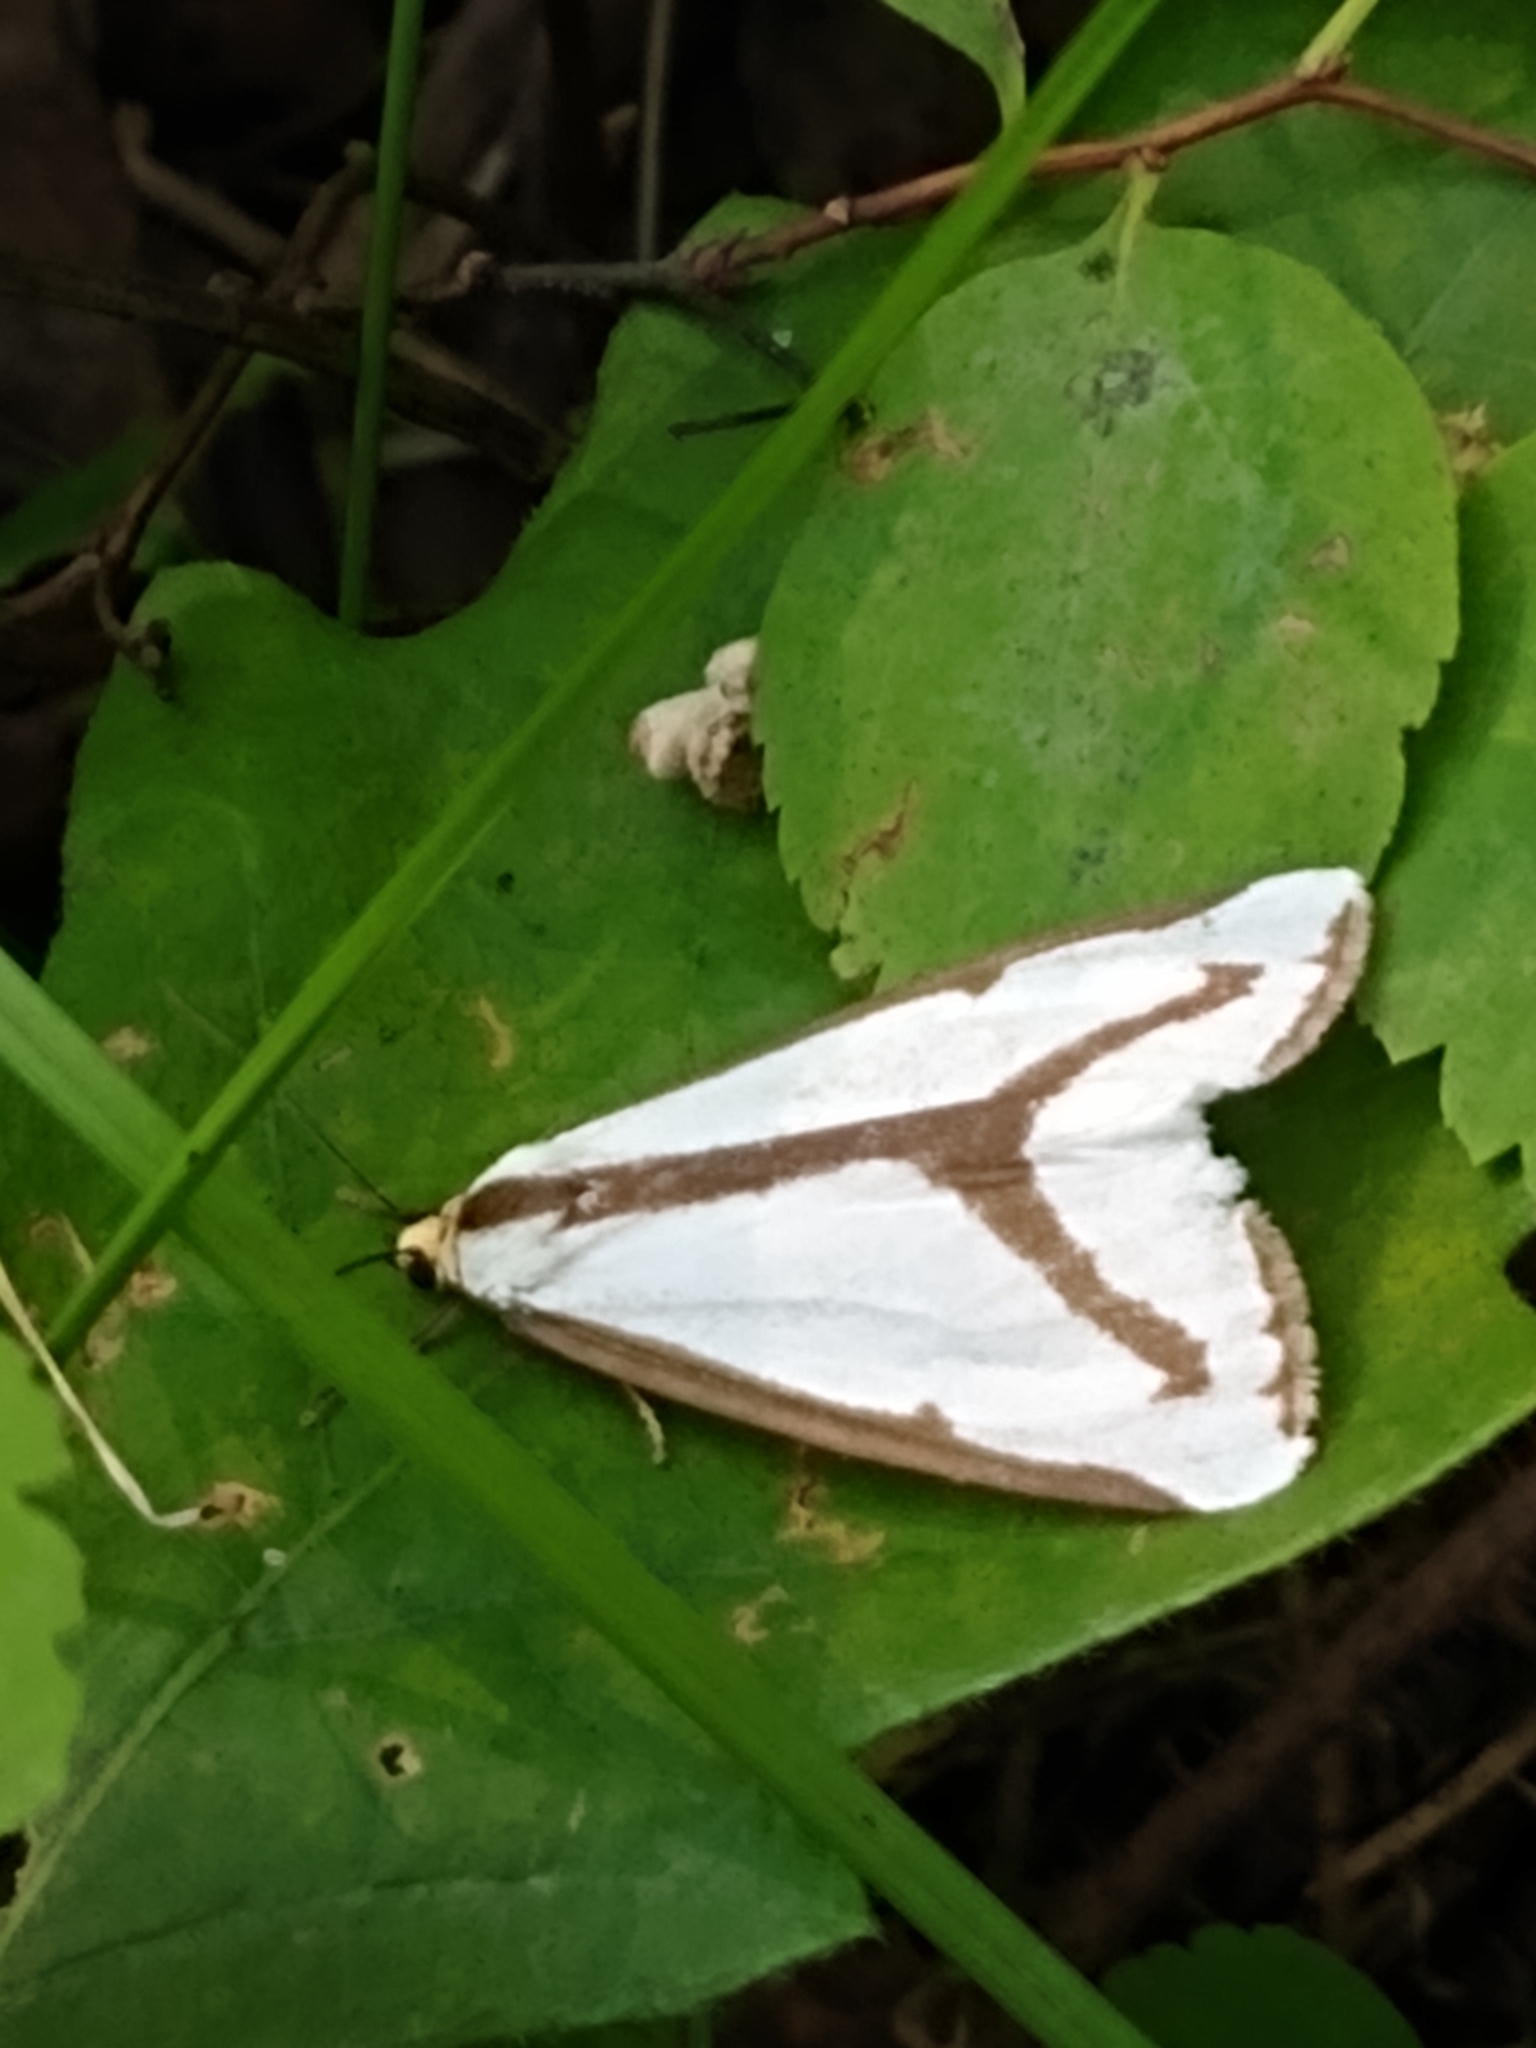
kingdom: Animalia
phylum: Arthropoda
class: Insecta
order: Lepidoptera
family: Erebidae
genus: Haploa
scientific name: Haploa lecontei
